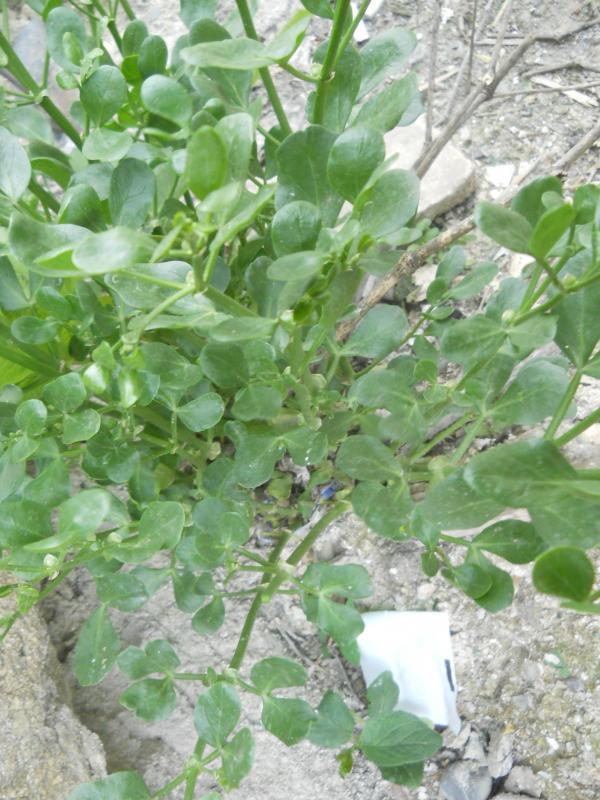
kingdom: Plantae
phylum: Tracheophyta
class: Magnoliopsida
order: Zygophyllales
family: Zygophyllaceae
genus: Zygophyllum
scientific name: Zygophyllum fabago
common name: Syrian beancaper
